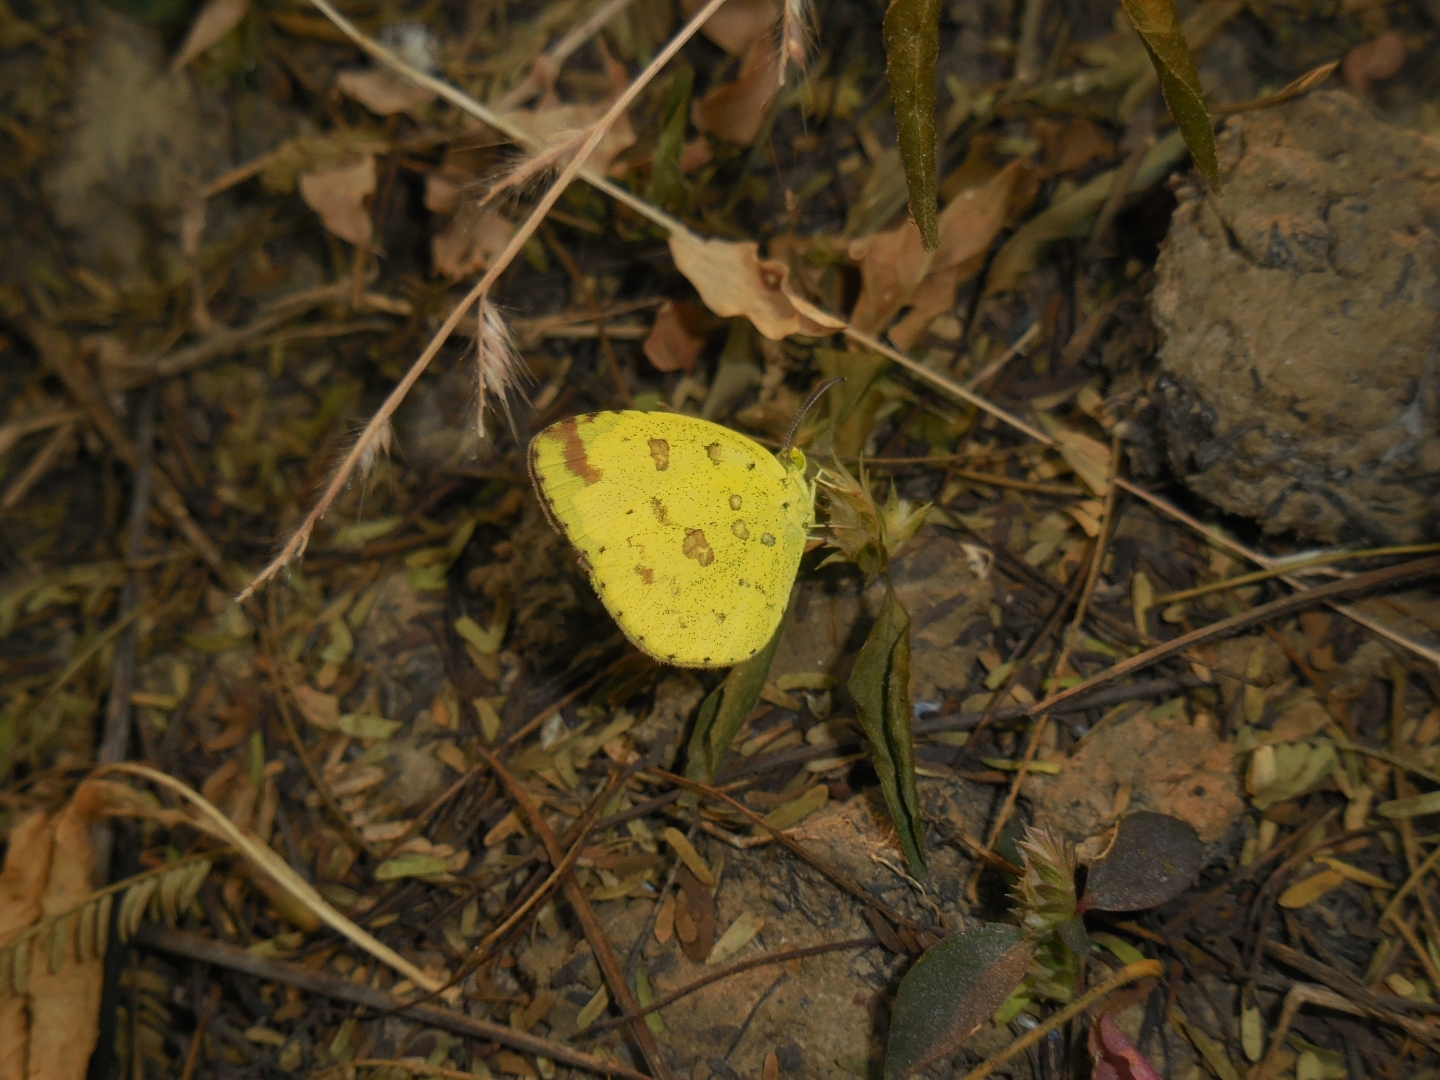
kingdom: Animalia
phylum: Arthropoda
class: Insecta
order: Lepidoptera
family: Pieridae
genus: Eurema
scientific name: Eurema hecabe
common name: Pale grass yellow
